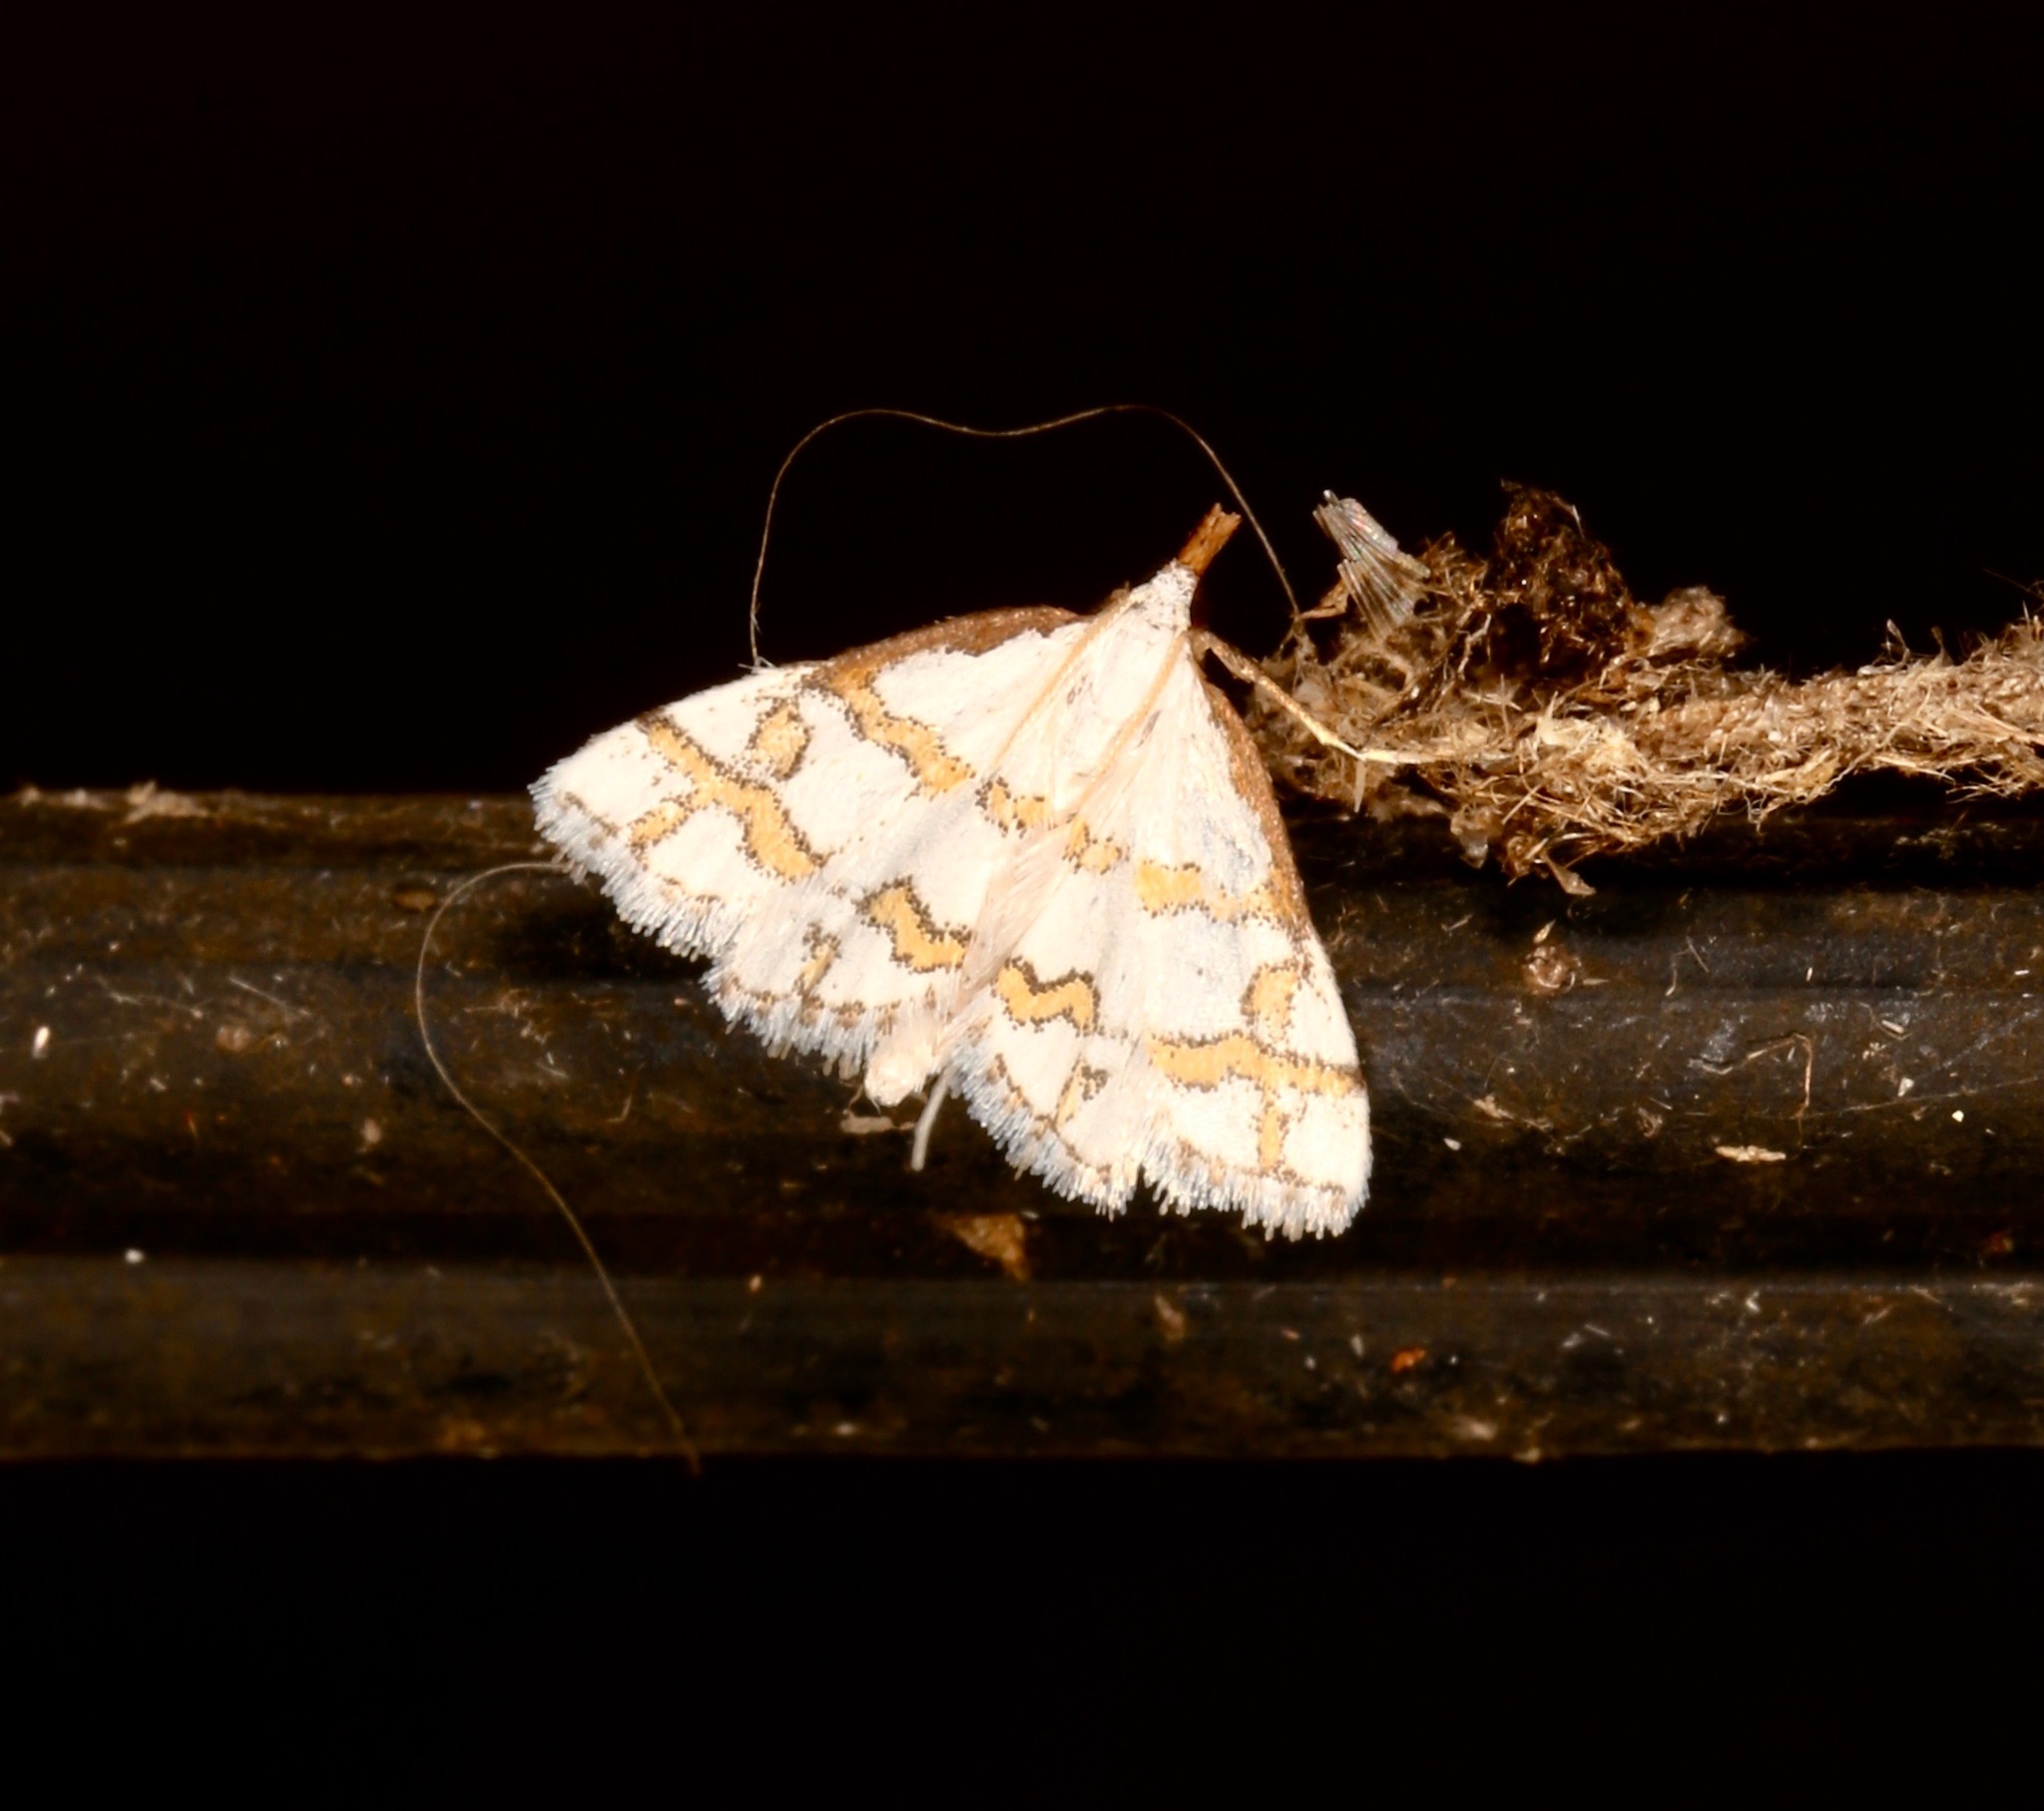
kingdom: Animalia
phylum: Arthropoda
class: Insecta
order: Lepidoptera
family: Crambidae
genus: Leptosteges
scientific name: Leptosteges
